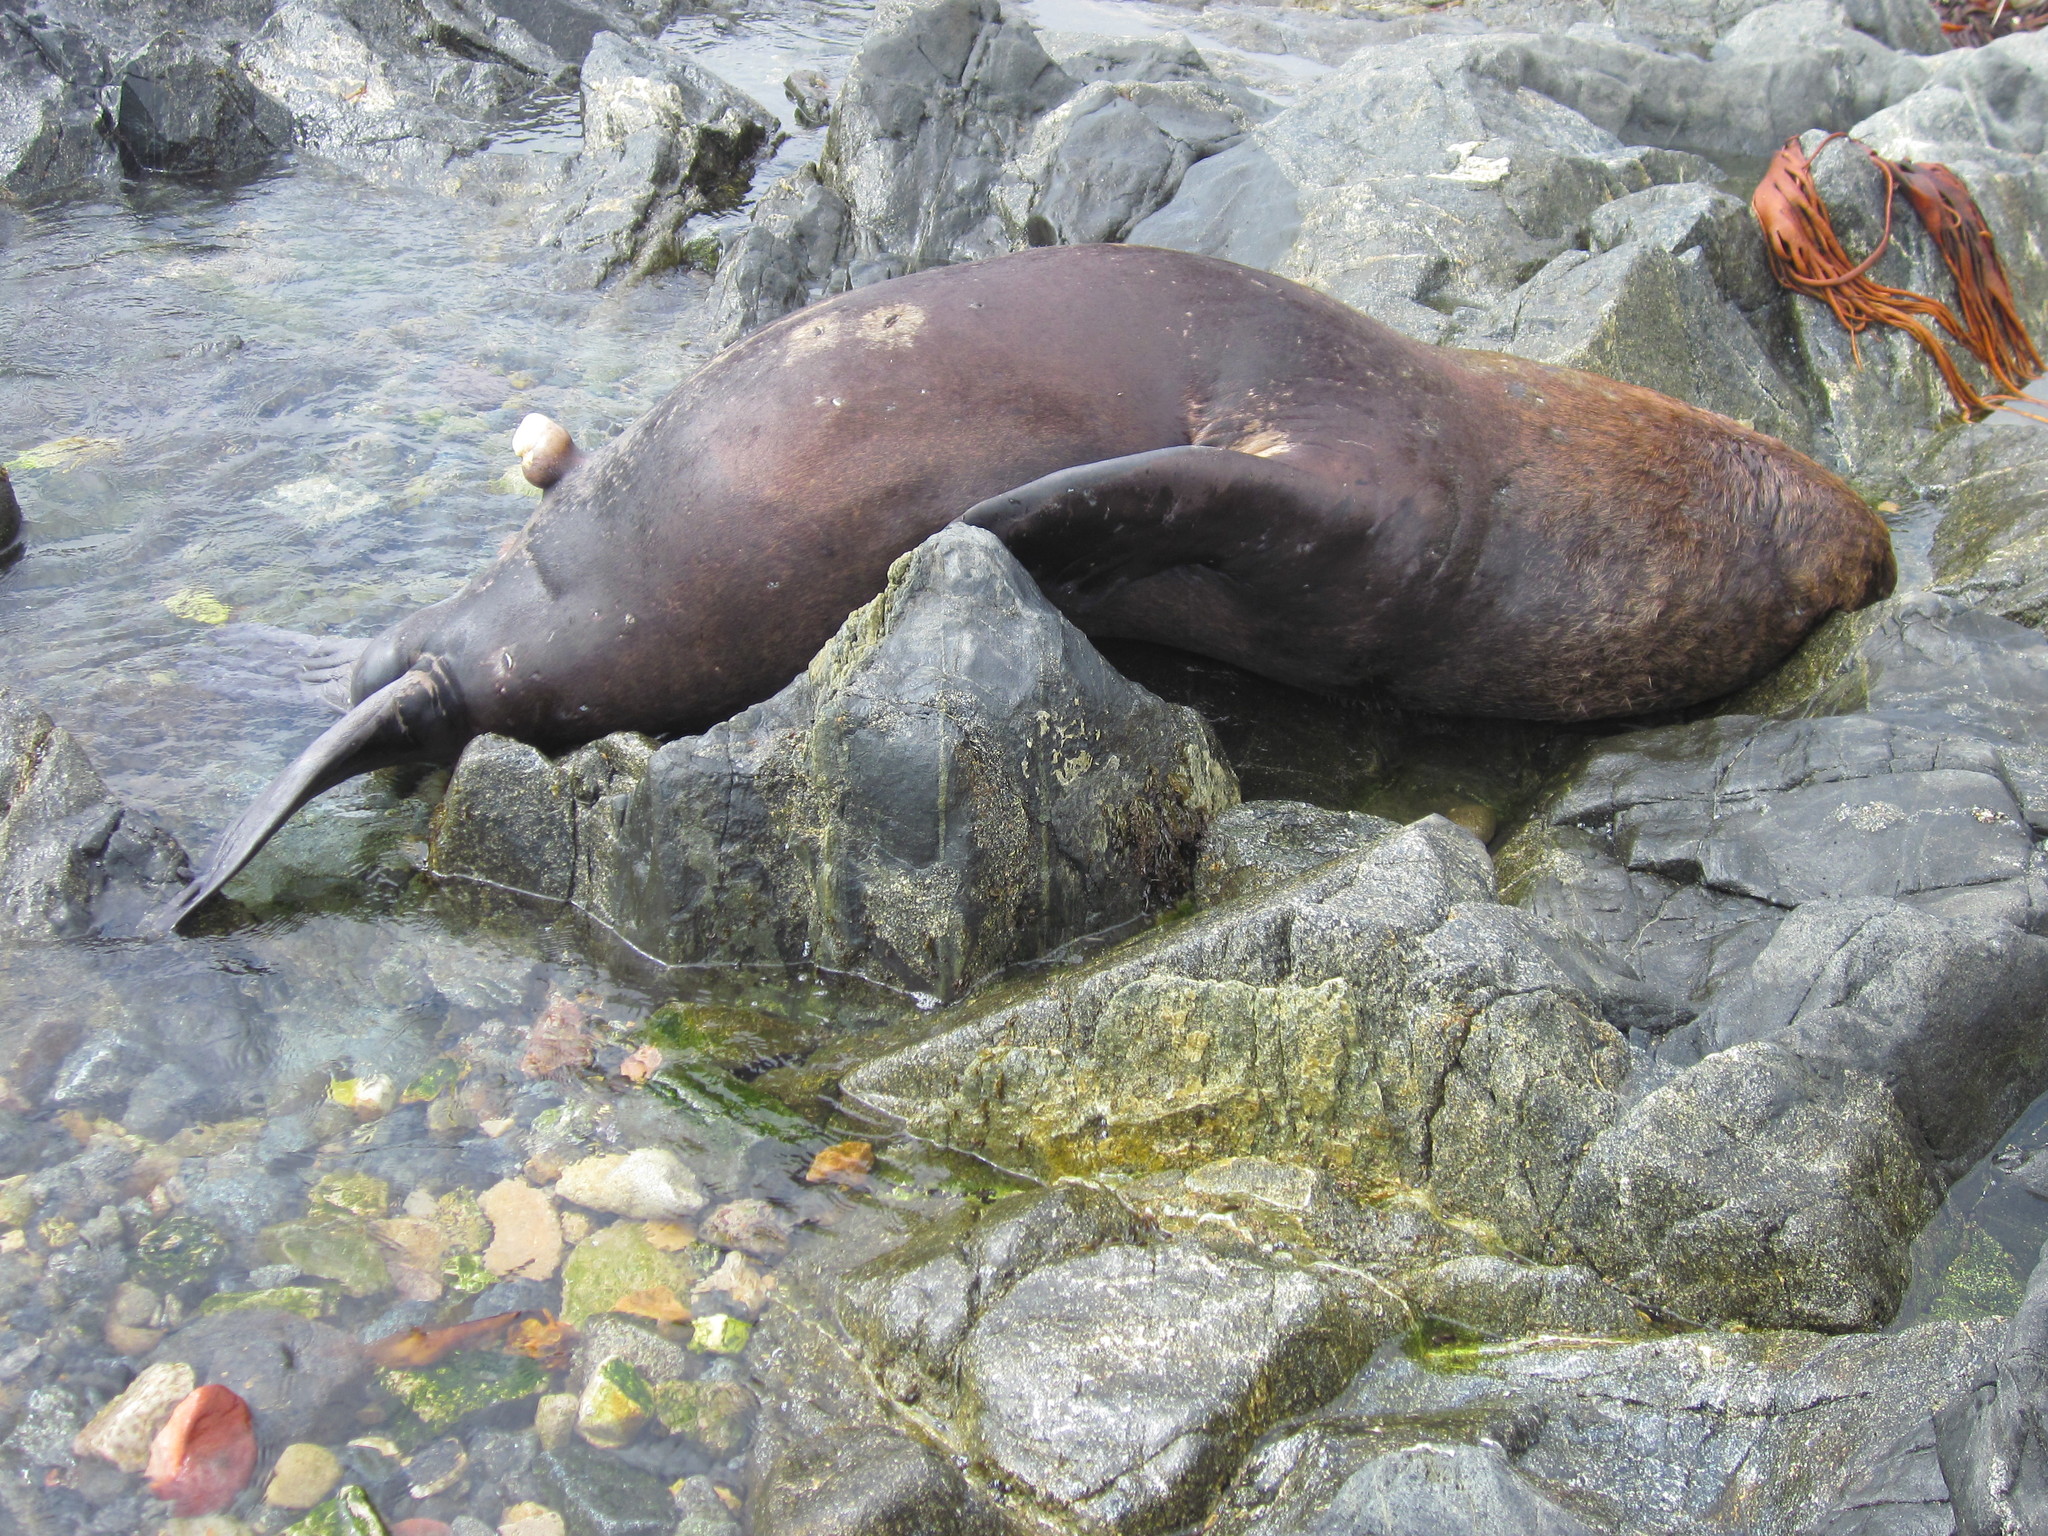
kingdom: Animalia
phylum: Chordata
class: Mammalia
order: Carnivora
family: Otariidae
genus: Otaria
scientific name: Otaria byronia
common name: South american sea lion
